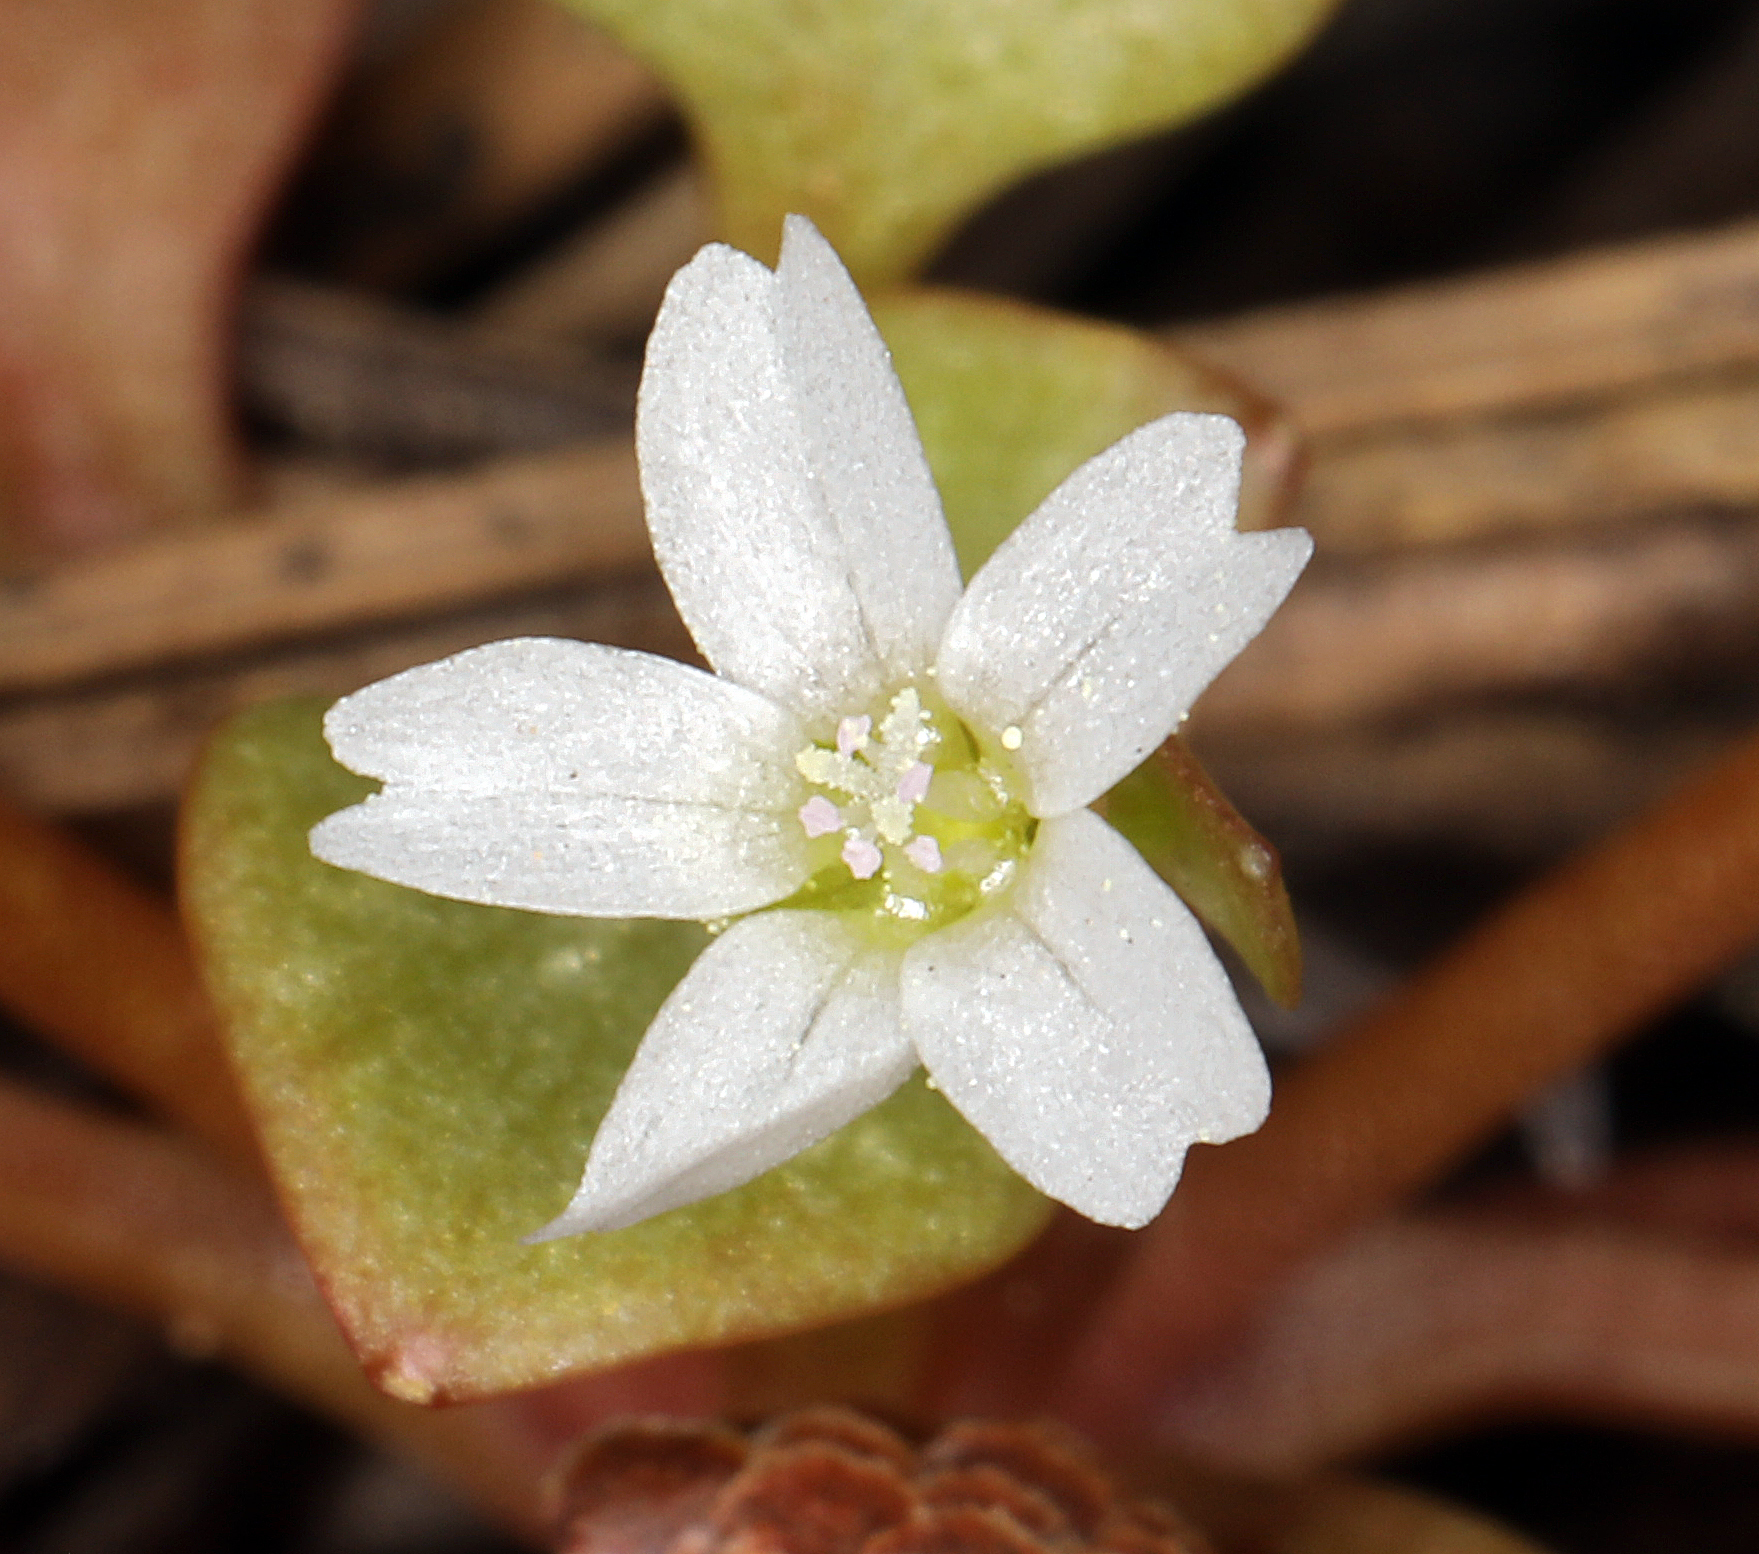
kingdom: Plantae
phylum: Tracheophyta
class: Magnoliopsida
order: Caryophyllales
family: Montiaceae
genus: Claytonia
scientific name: Claytonia rubra
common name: Erubescent miner's-lettuce
